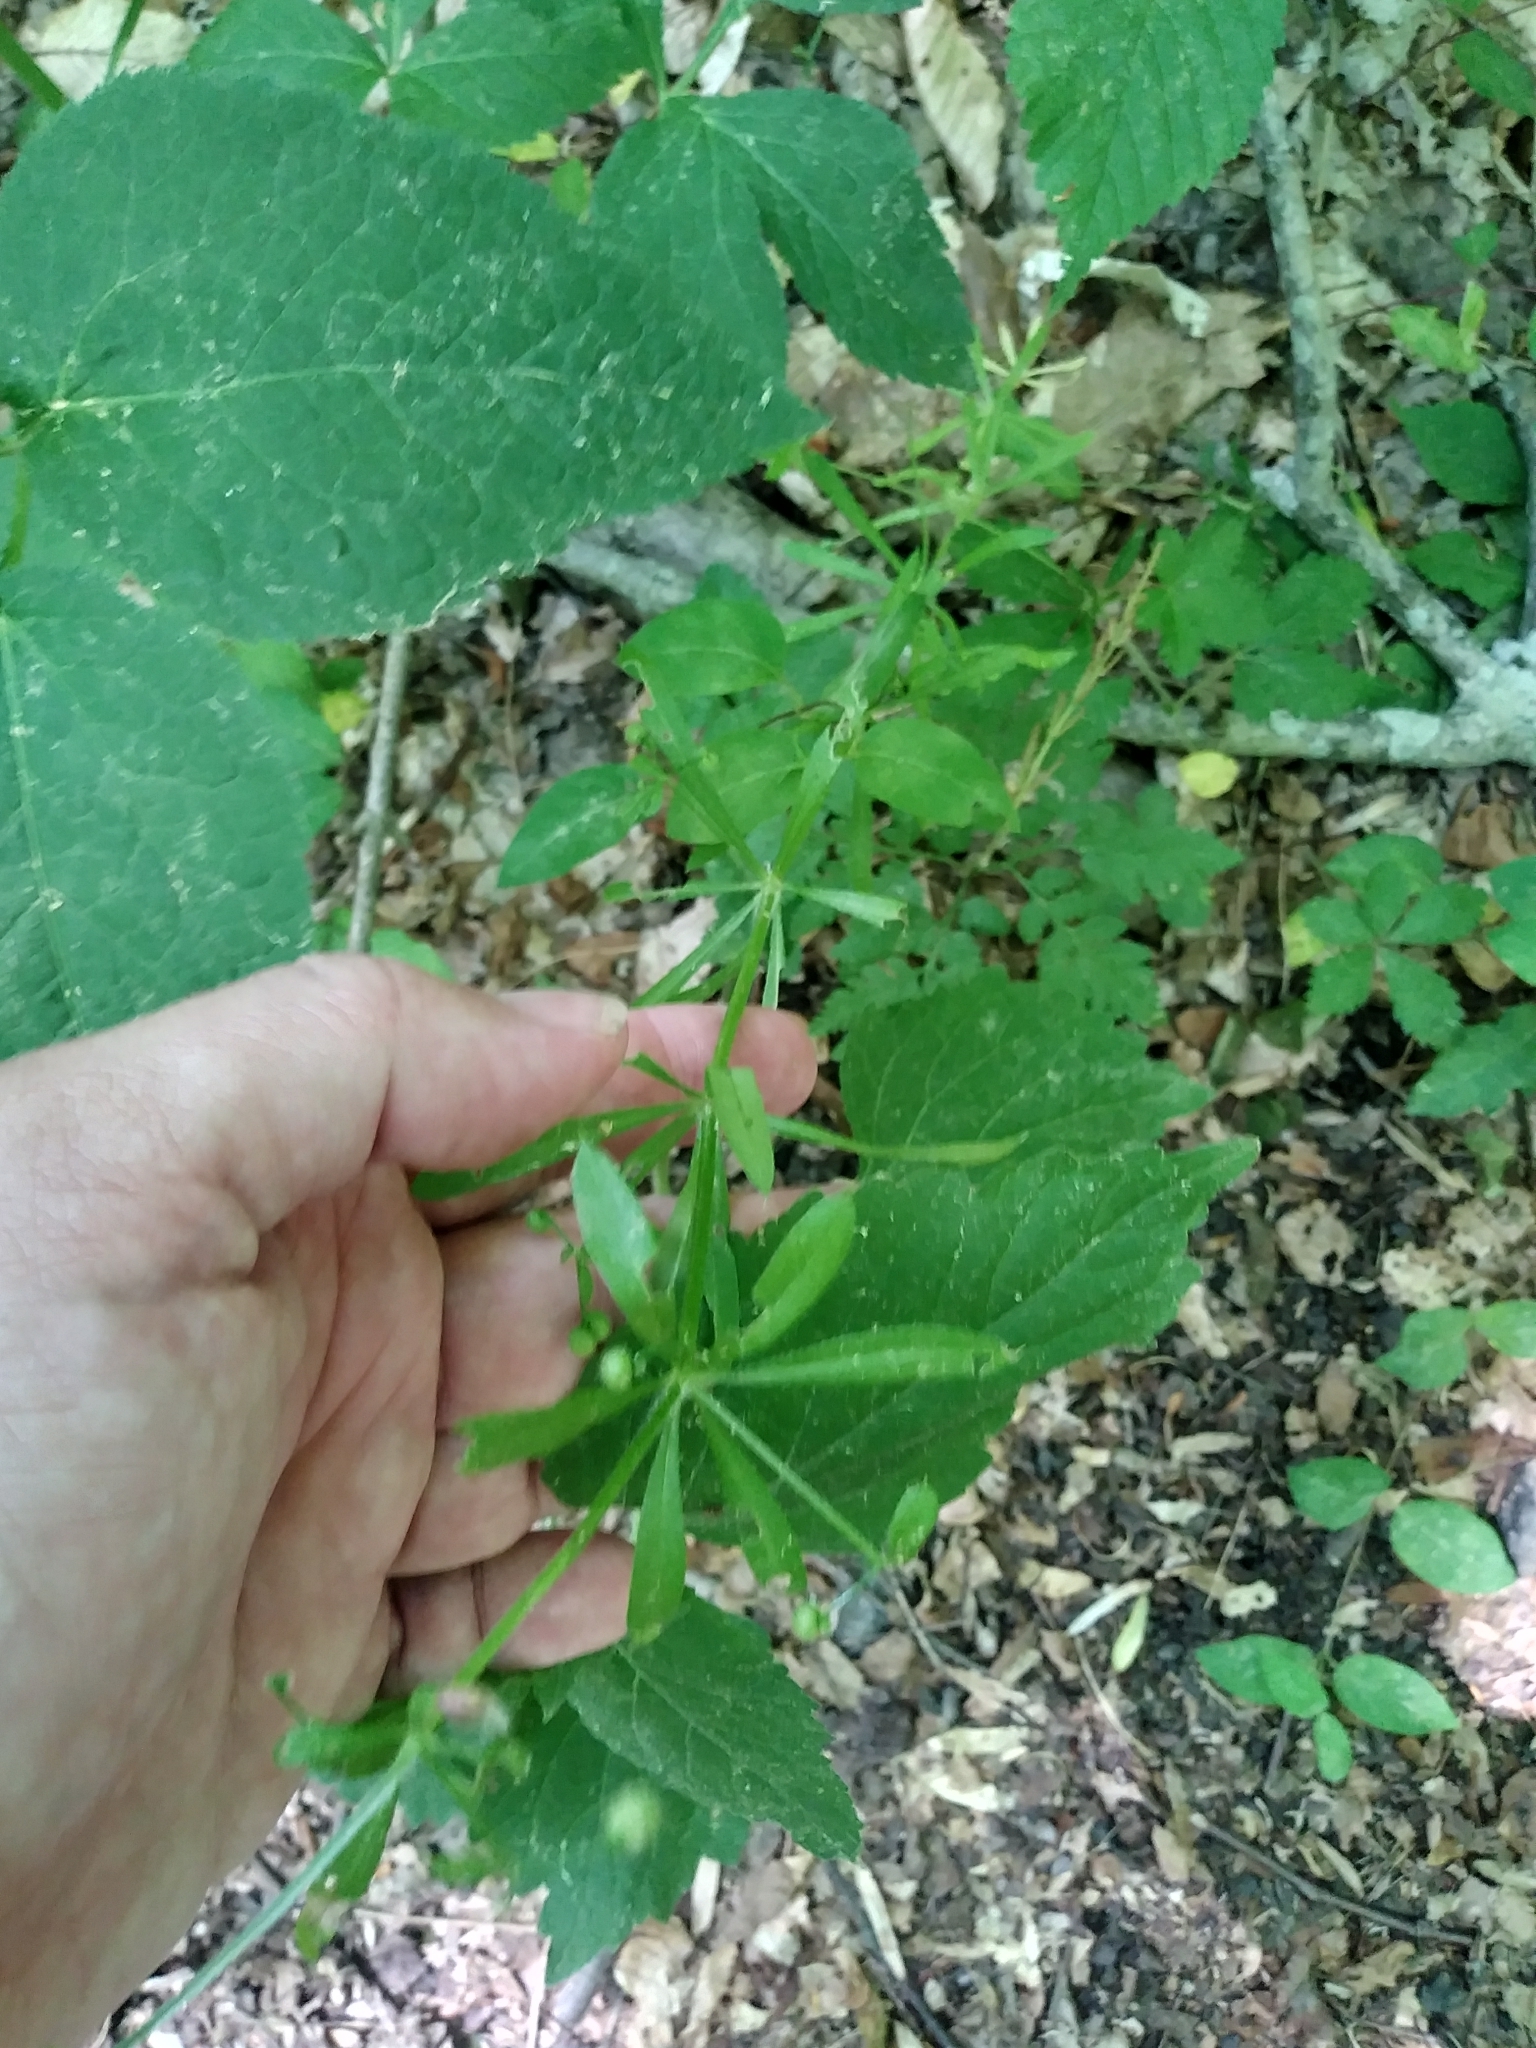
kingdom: Plantae
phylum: Tracheophyta
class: Magnoliopsida
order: Gentianales
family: Rubiaceae
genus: Galium
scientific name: Galium aparine
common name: Cleavers
